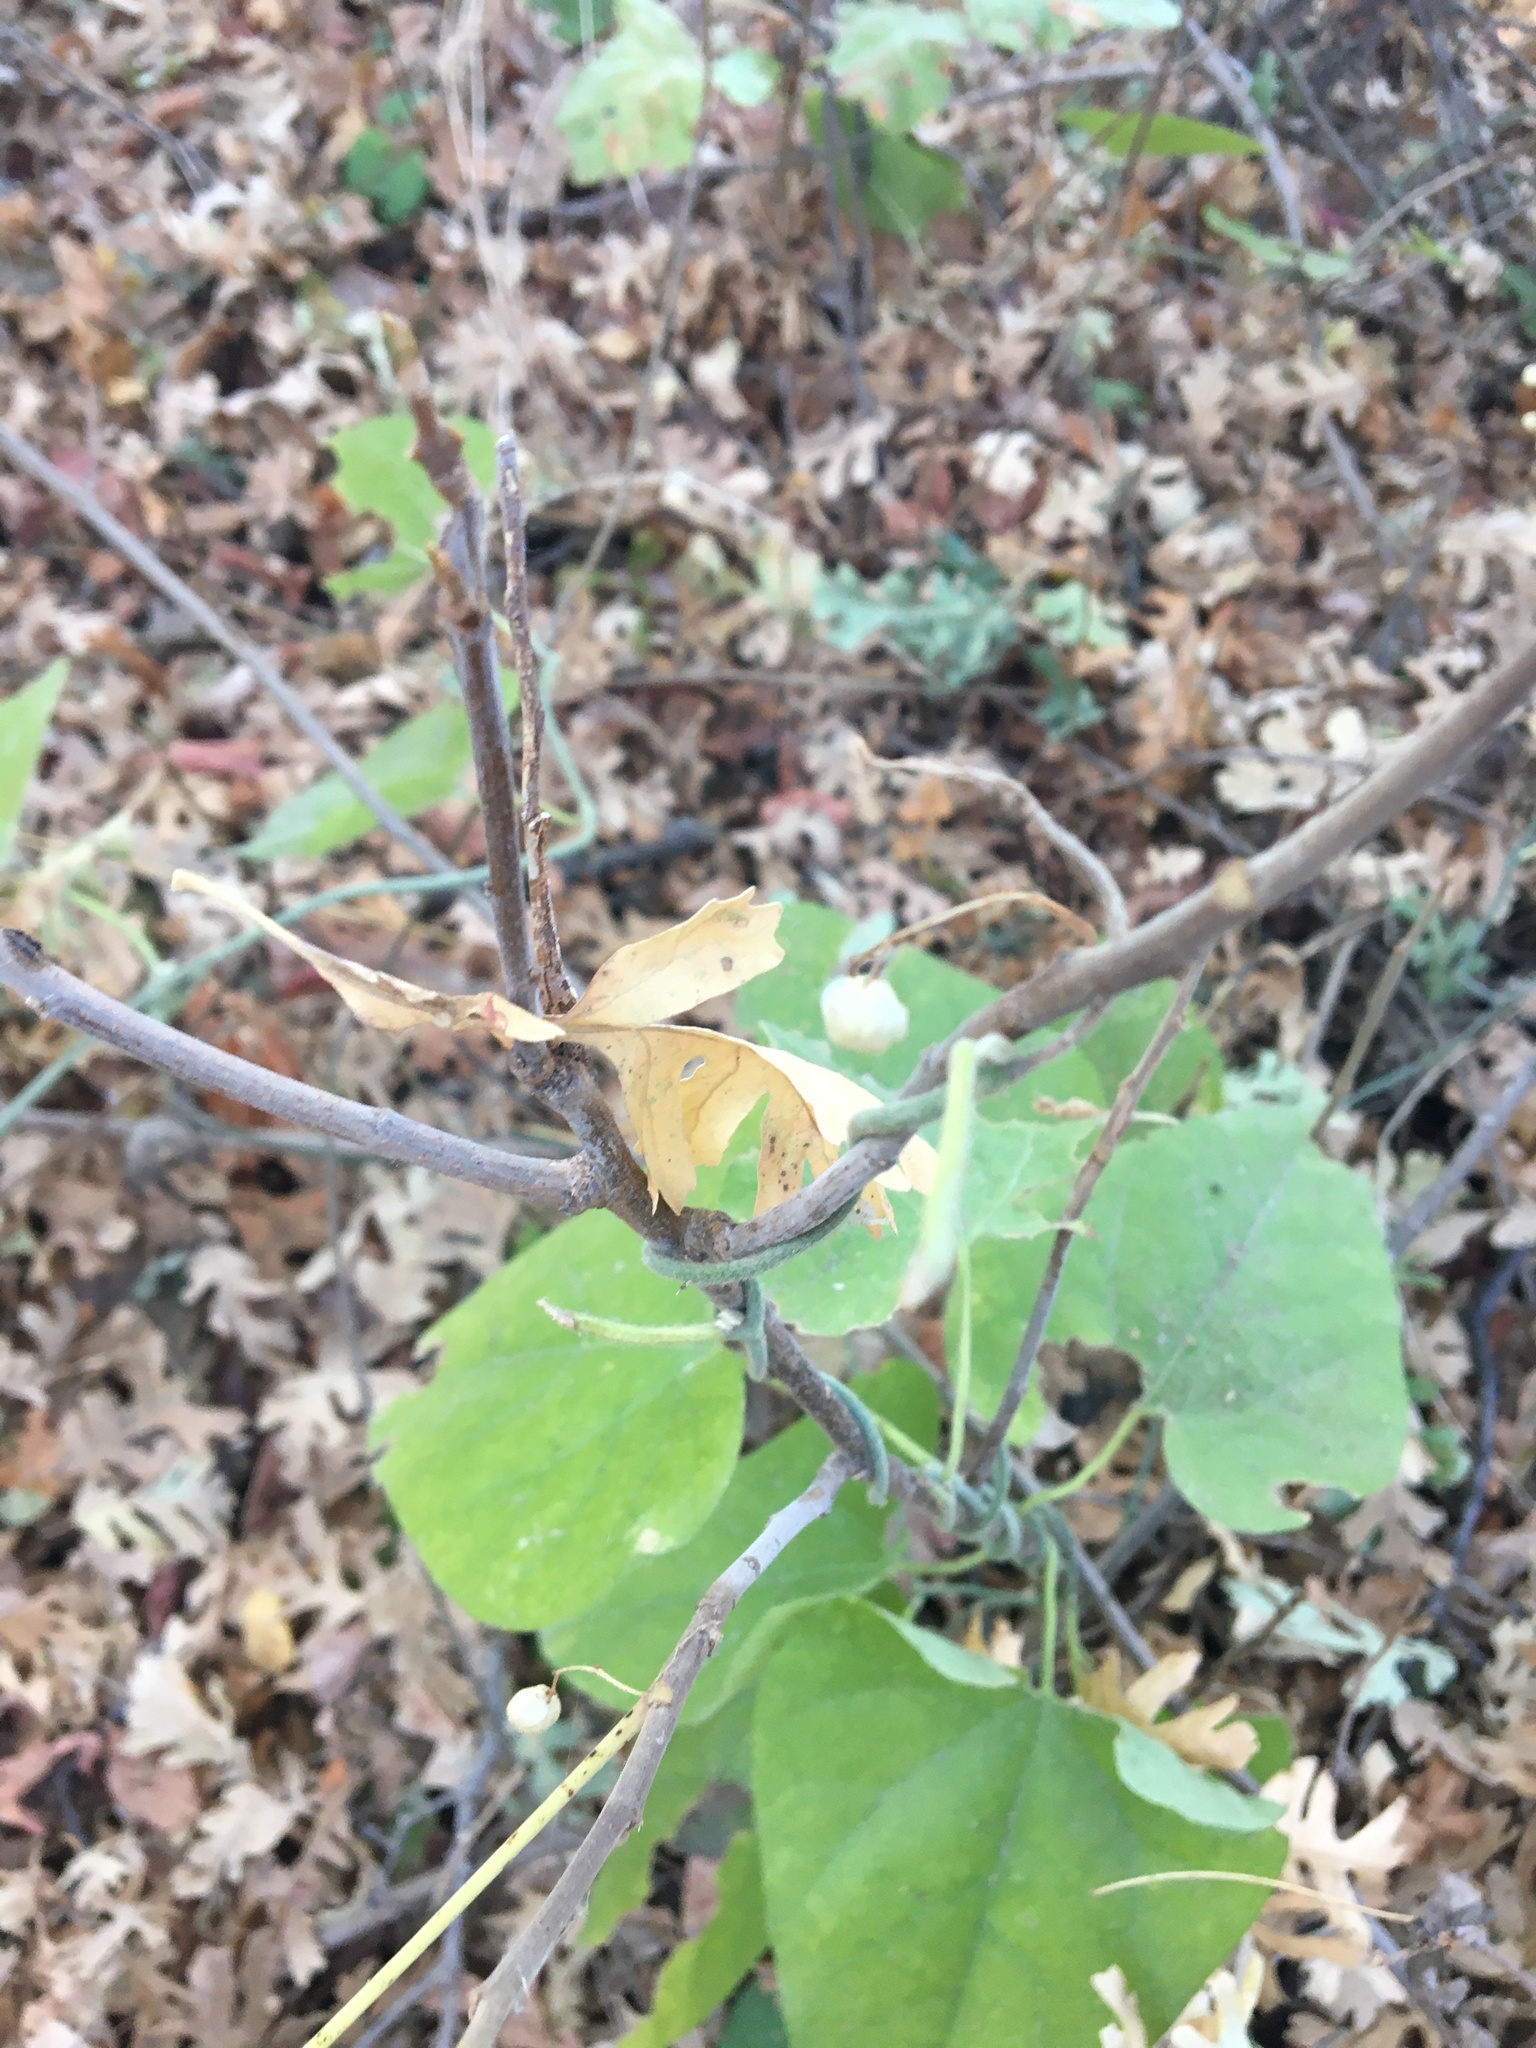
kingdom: Plantae
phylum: Tracheophyta
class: Magnoliopsida
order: Piperales
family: Aristolochiaceae
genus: Isotrema
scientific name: Isotrema californicum
